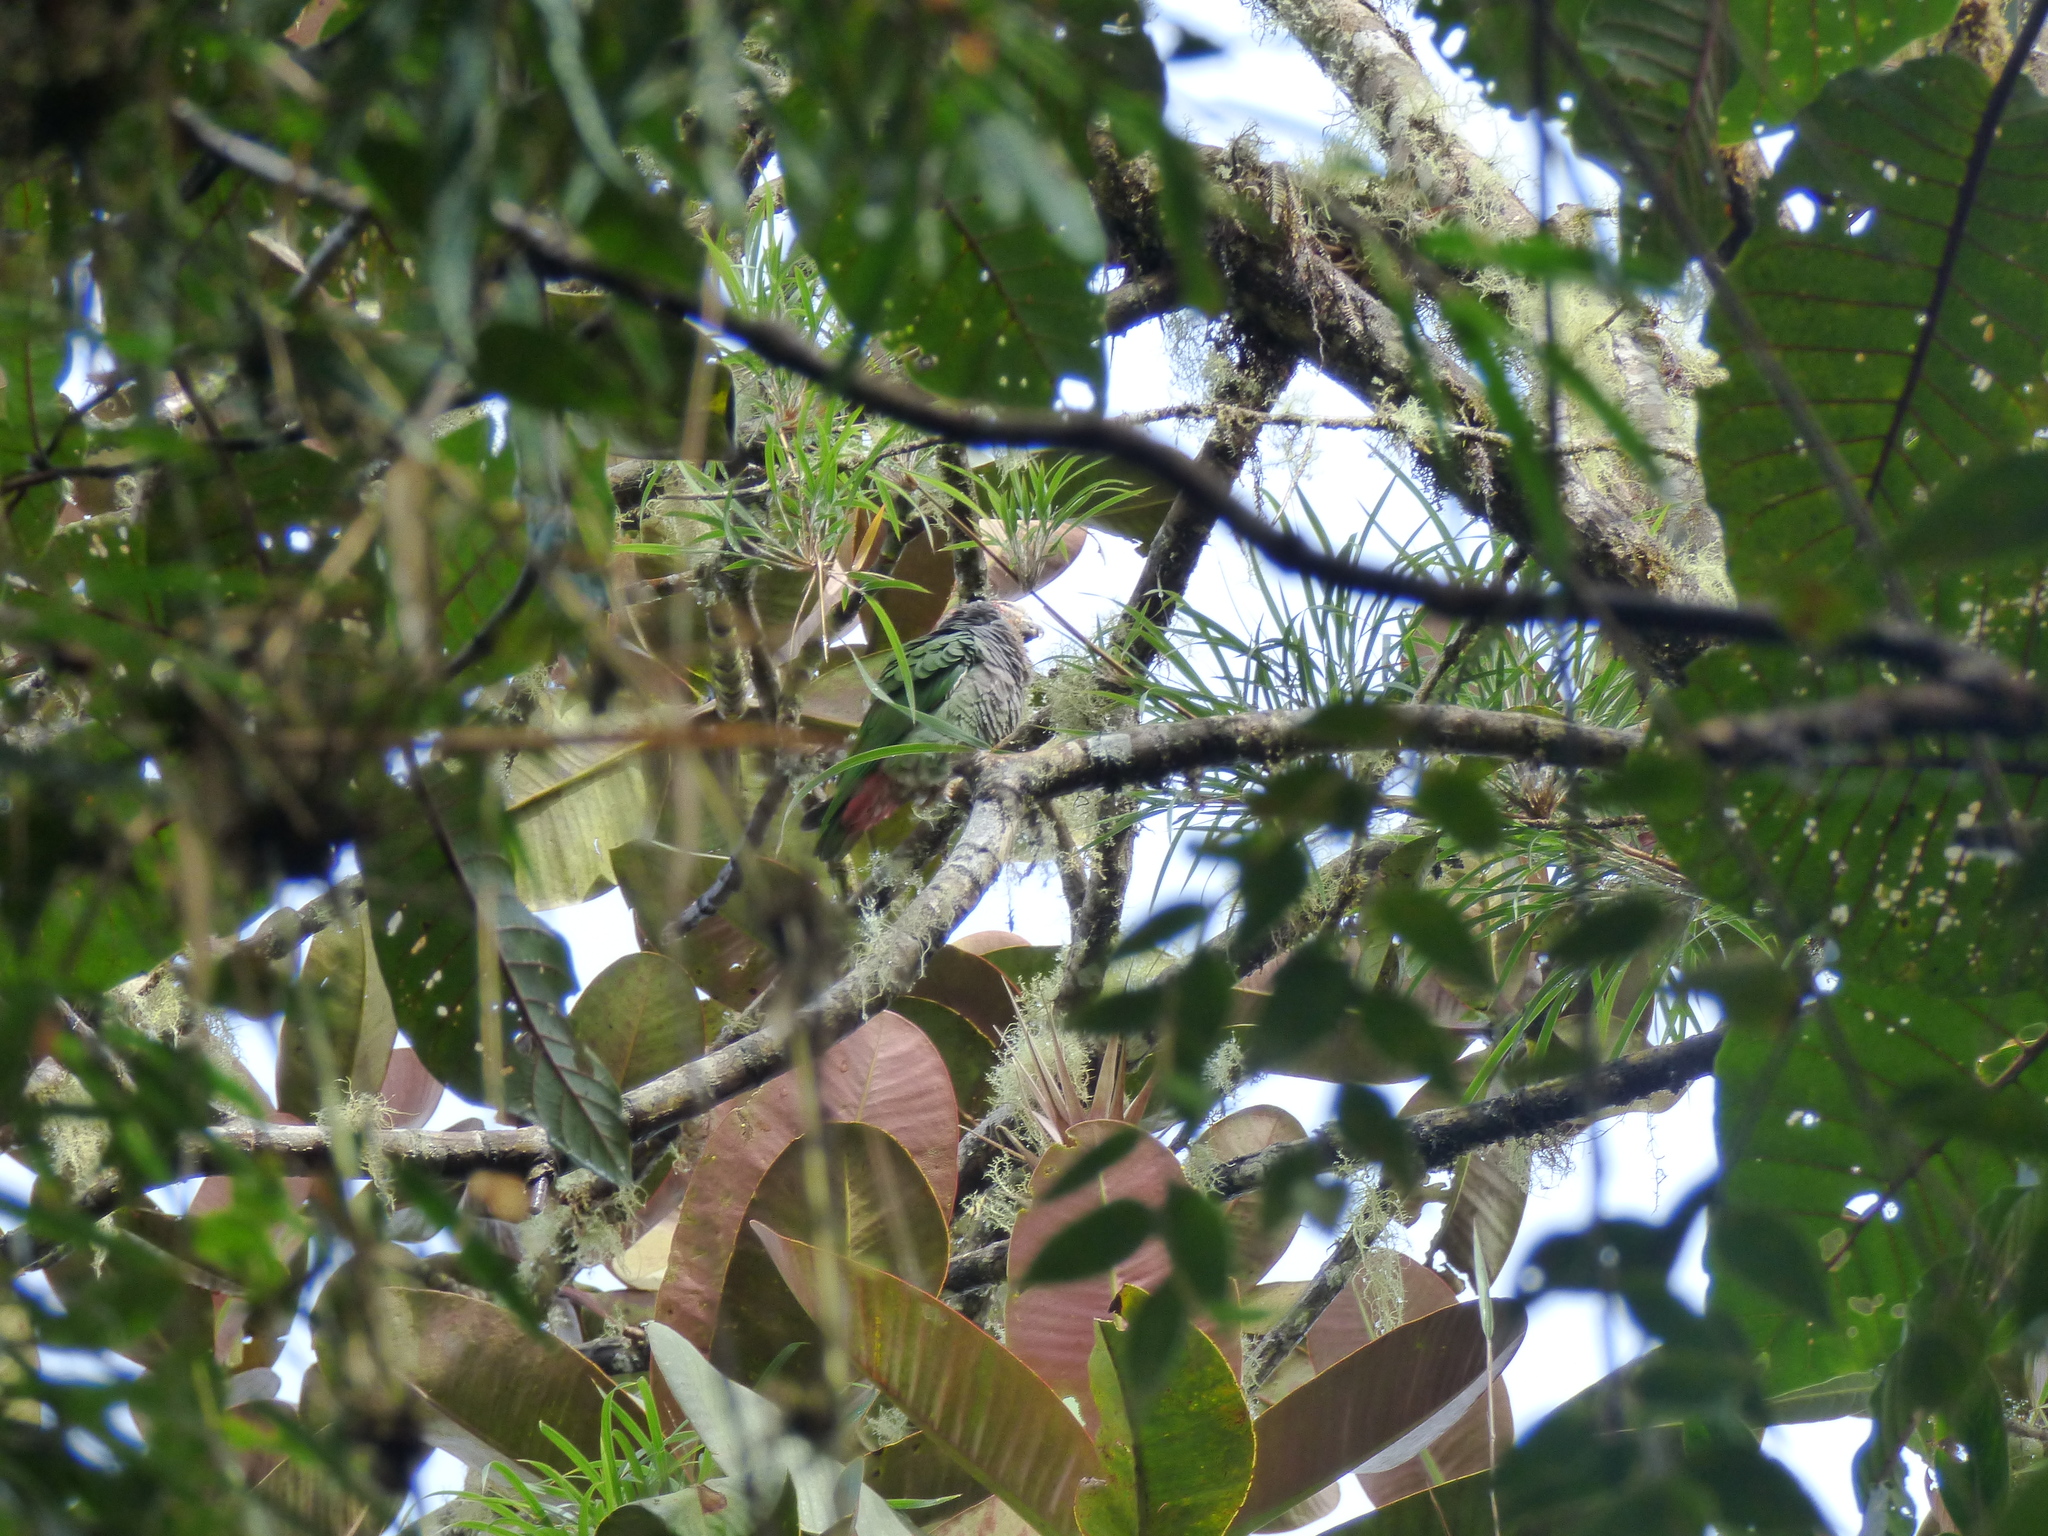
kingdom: Animalia
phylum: Chordata
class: Aves
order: Psittaciformes
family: Psittacidae
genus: Pionus
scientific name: Pionus tumultuosus
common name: Plum-crowned parrot
